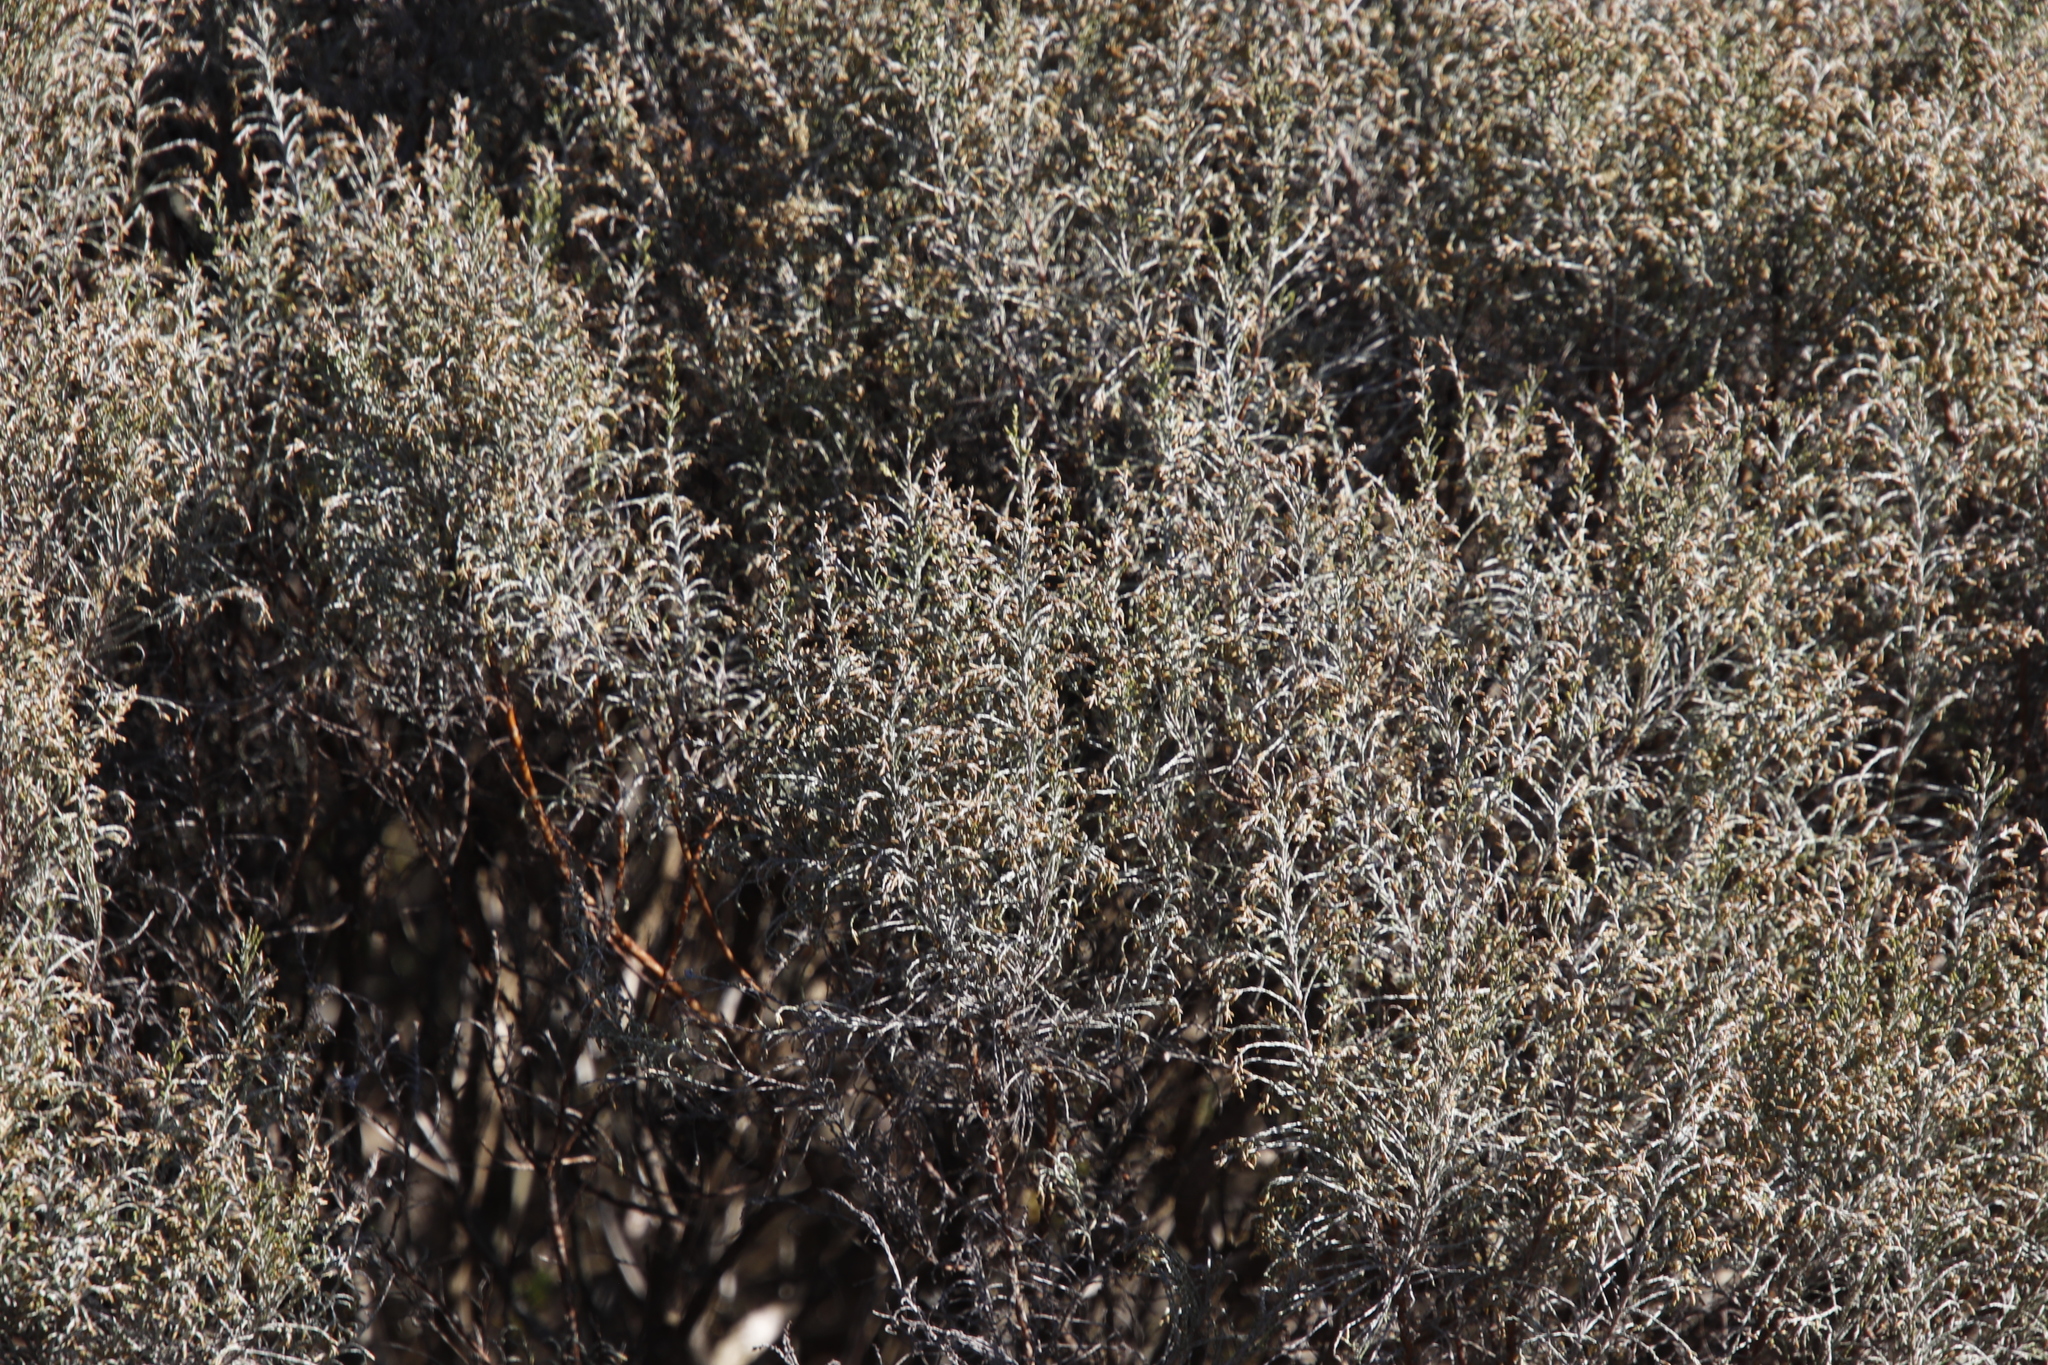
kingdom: Plantae
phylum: Tracheophyta
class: Magnoliopsida
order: Asterales
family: Asteraceae
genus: Dicerothamnus
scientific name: Dicerothamnus rhinocerotis
